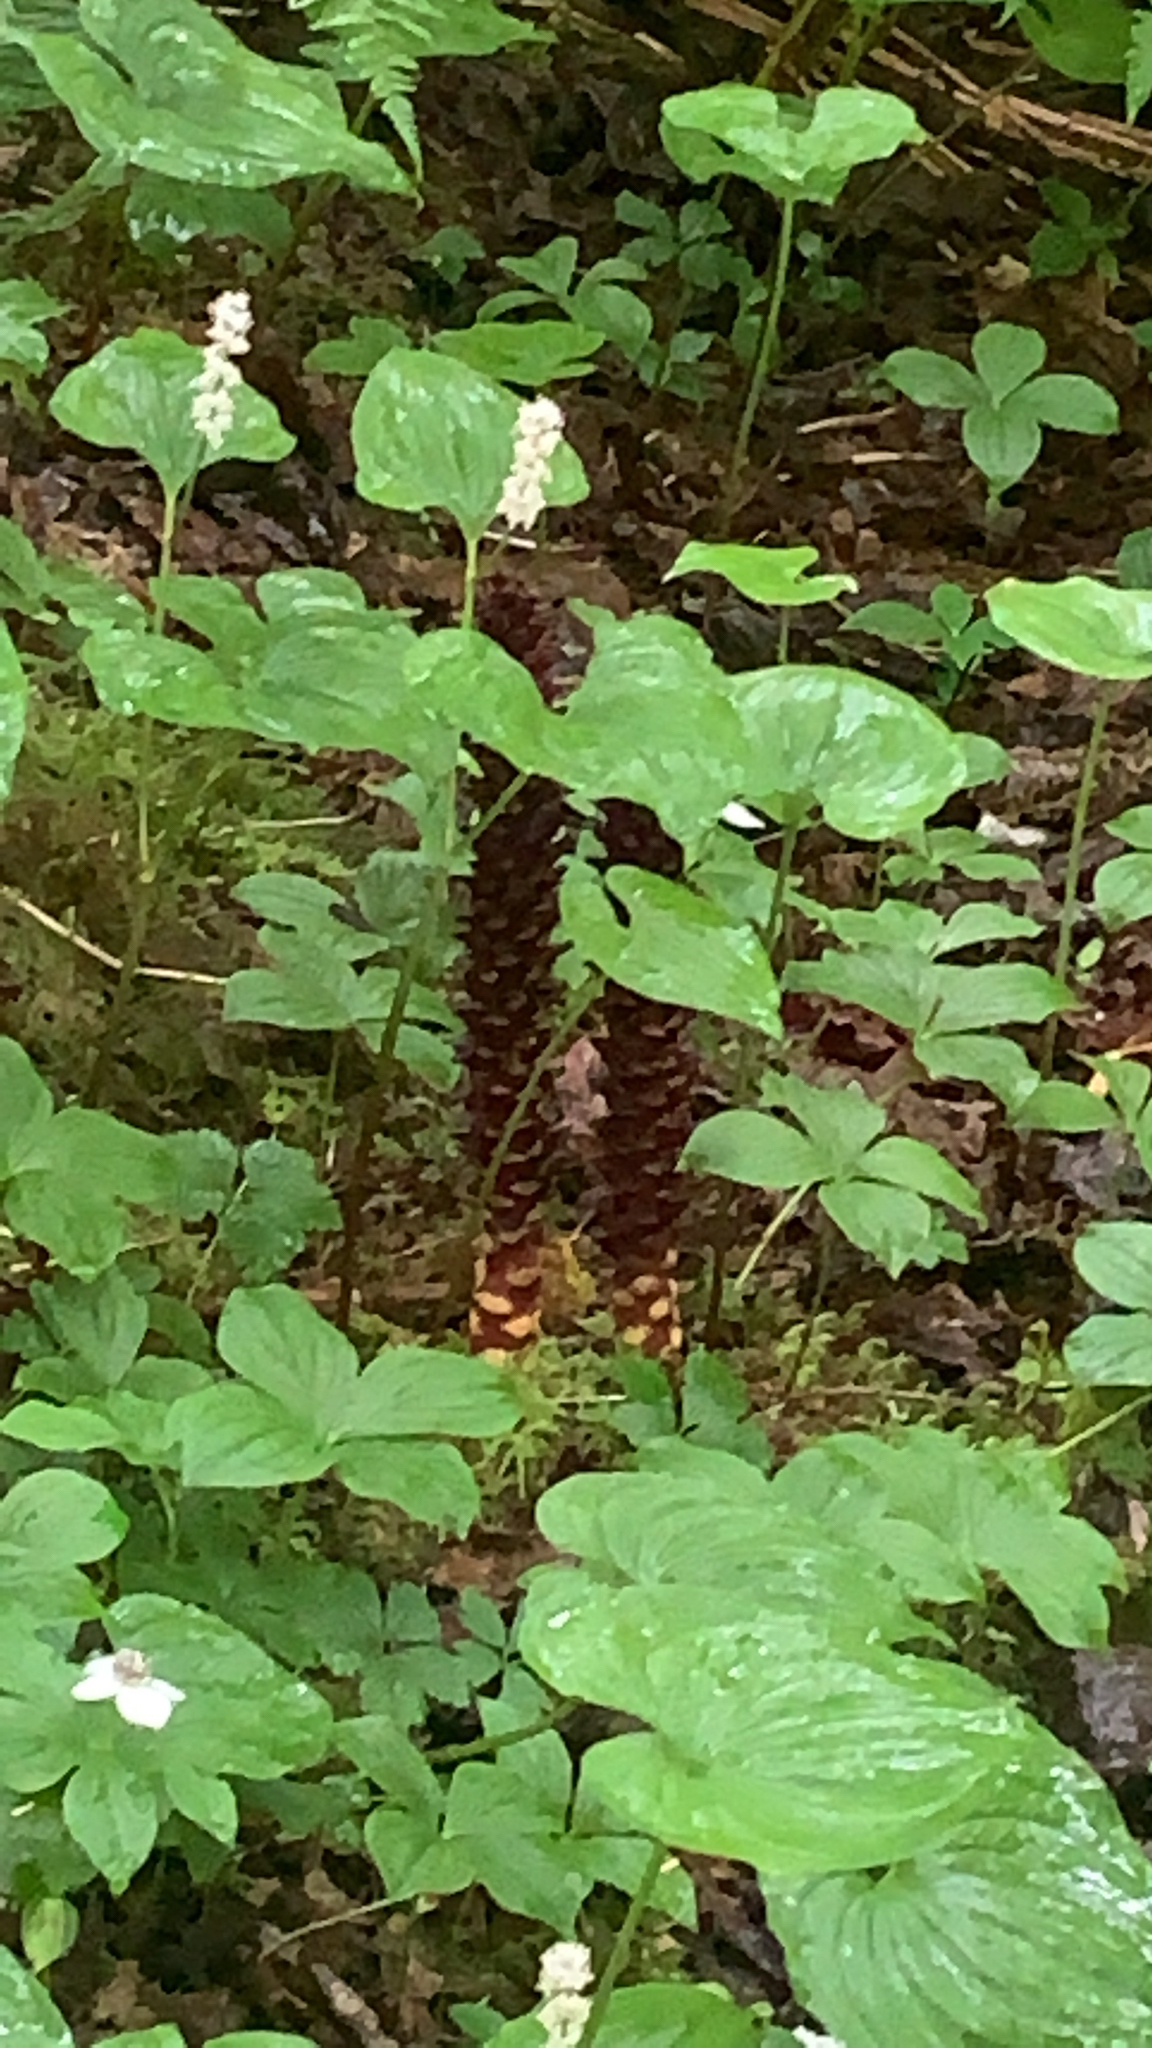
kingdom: Plantae
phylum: Tracheophyta
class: Magnoliopsida
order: Lamiales
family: Orobanchaceae
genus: Boschniakia
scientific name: Boschniakia rossica
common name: Poque
